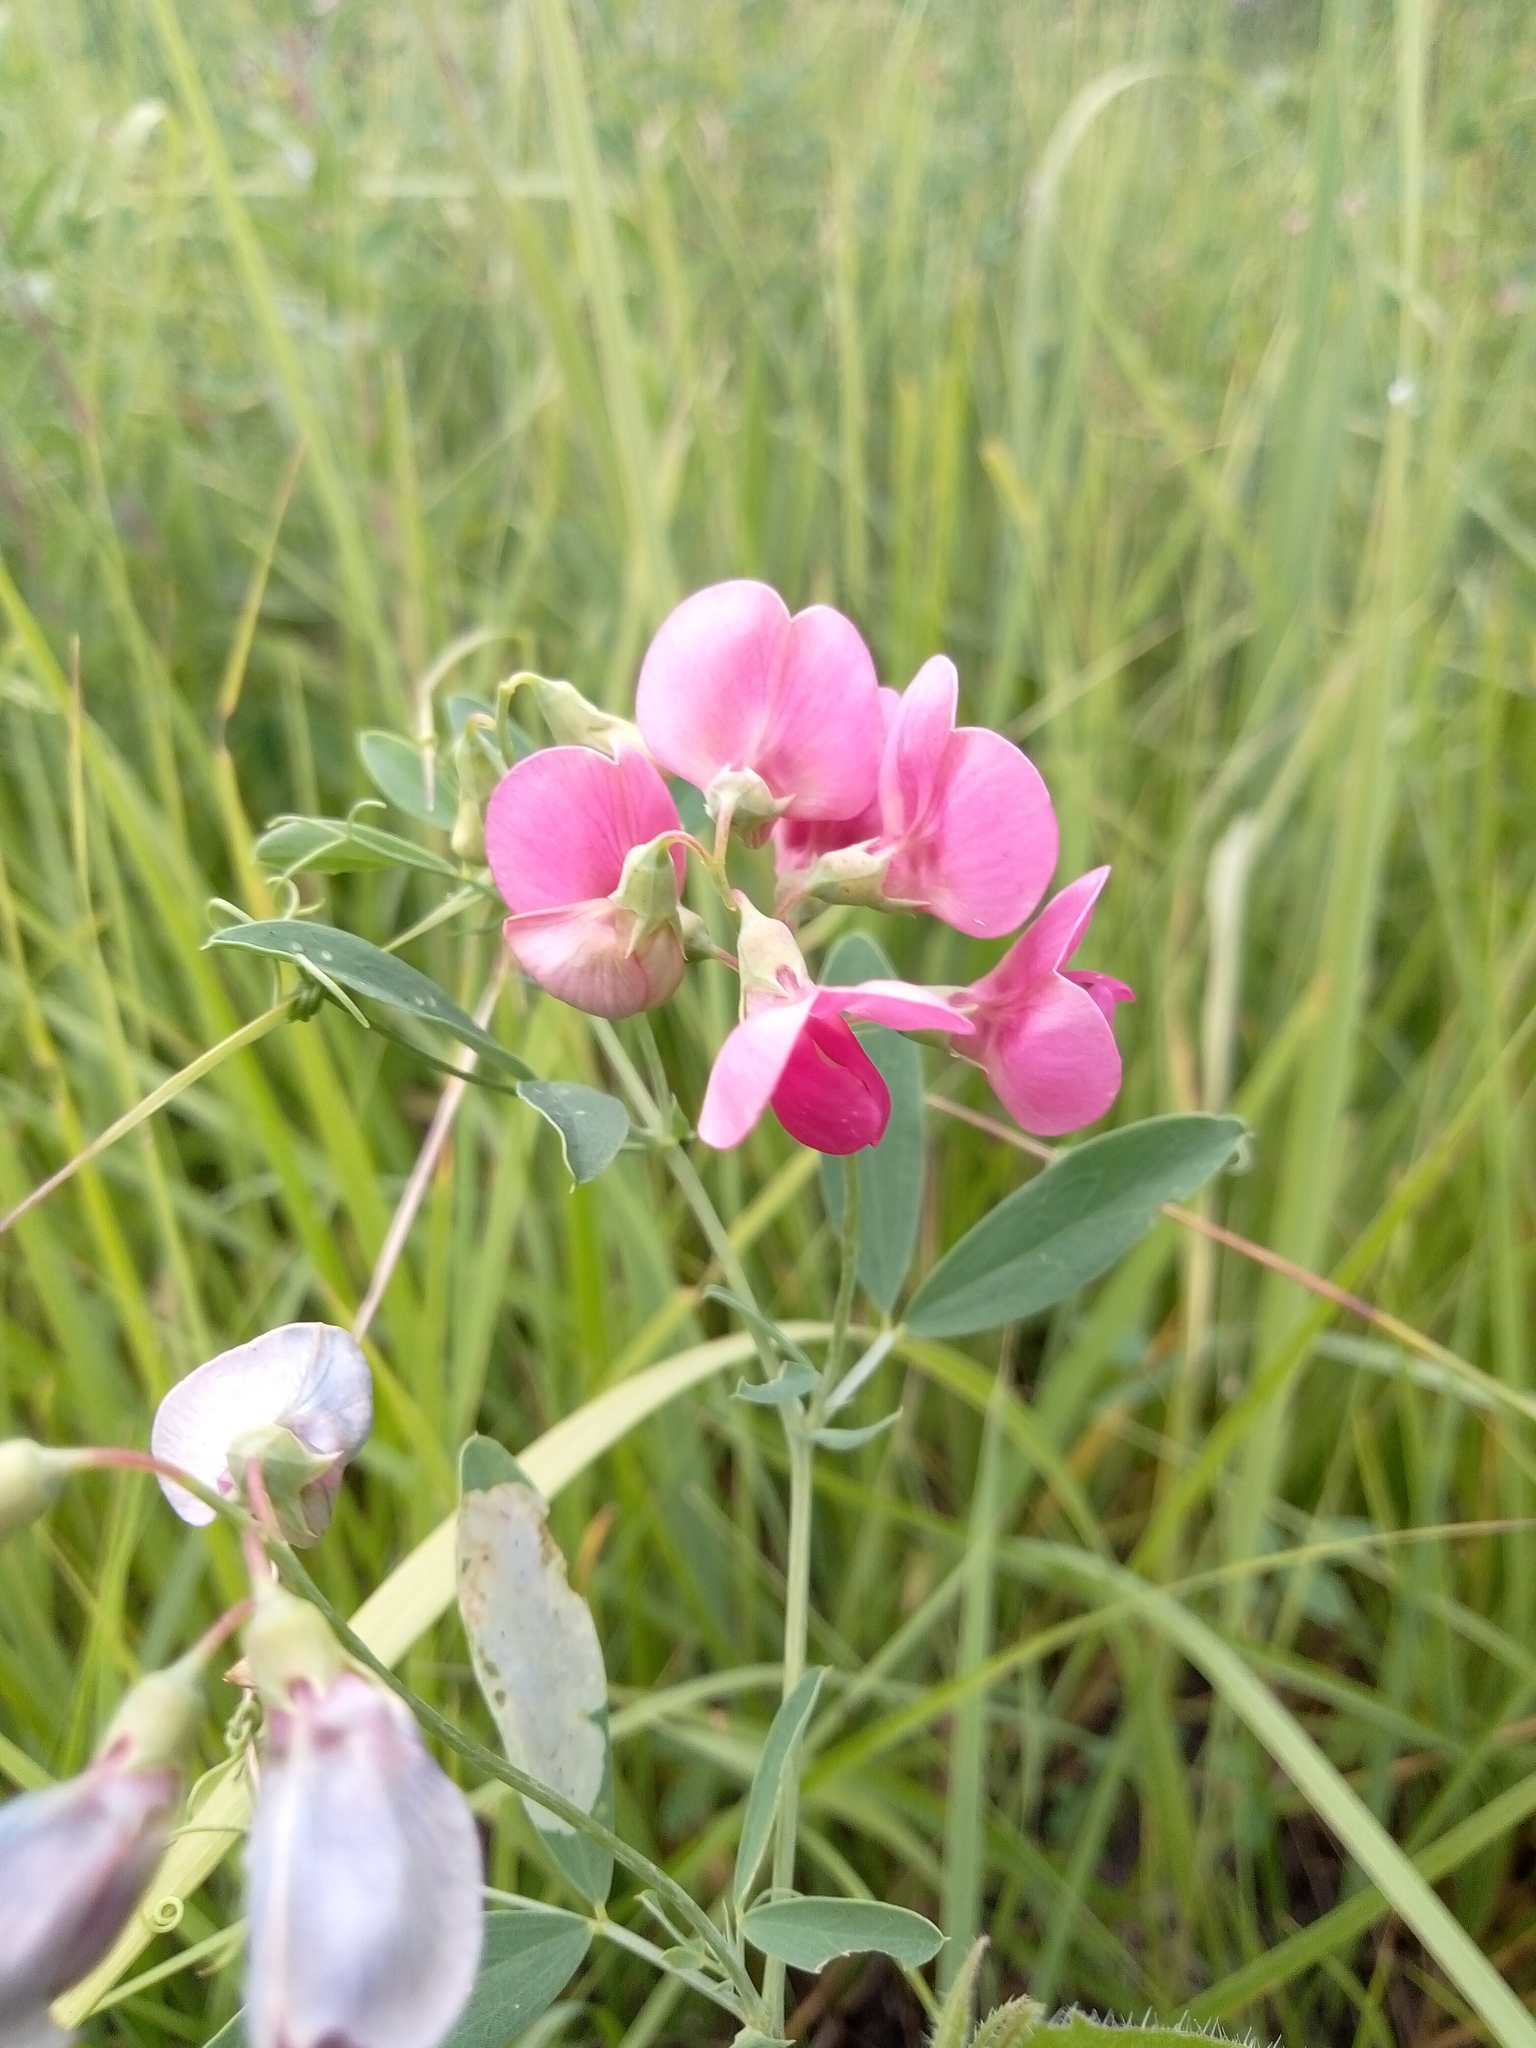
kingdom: Plantae
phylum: Tracheophyta
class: Magnoliopsida
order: Fabales
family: Fabaceae
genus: Lathyrus
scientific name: Lathyrus tuberosus
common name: Tuberous pea
